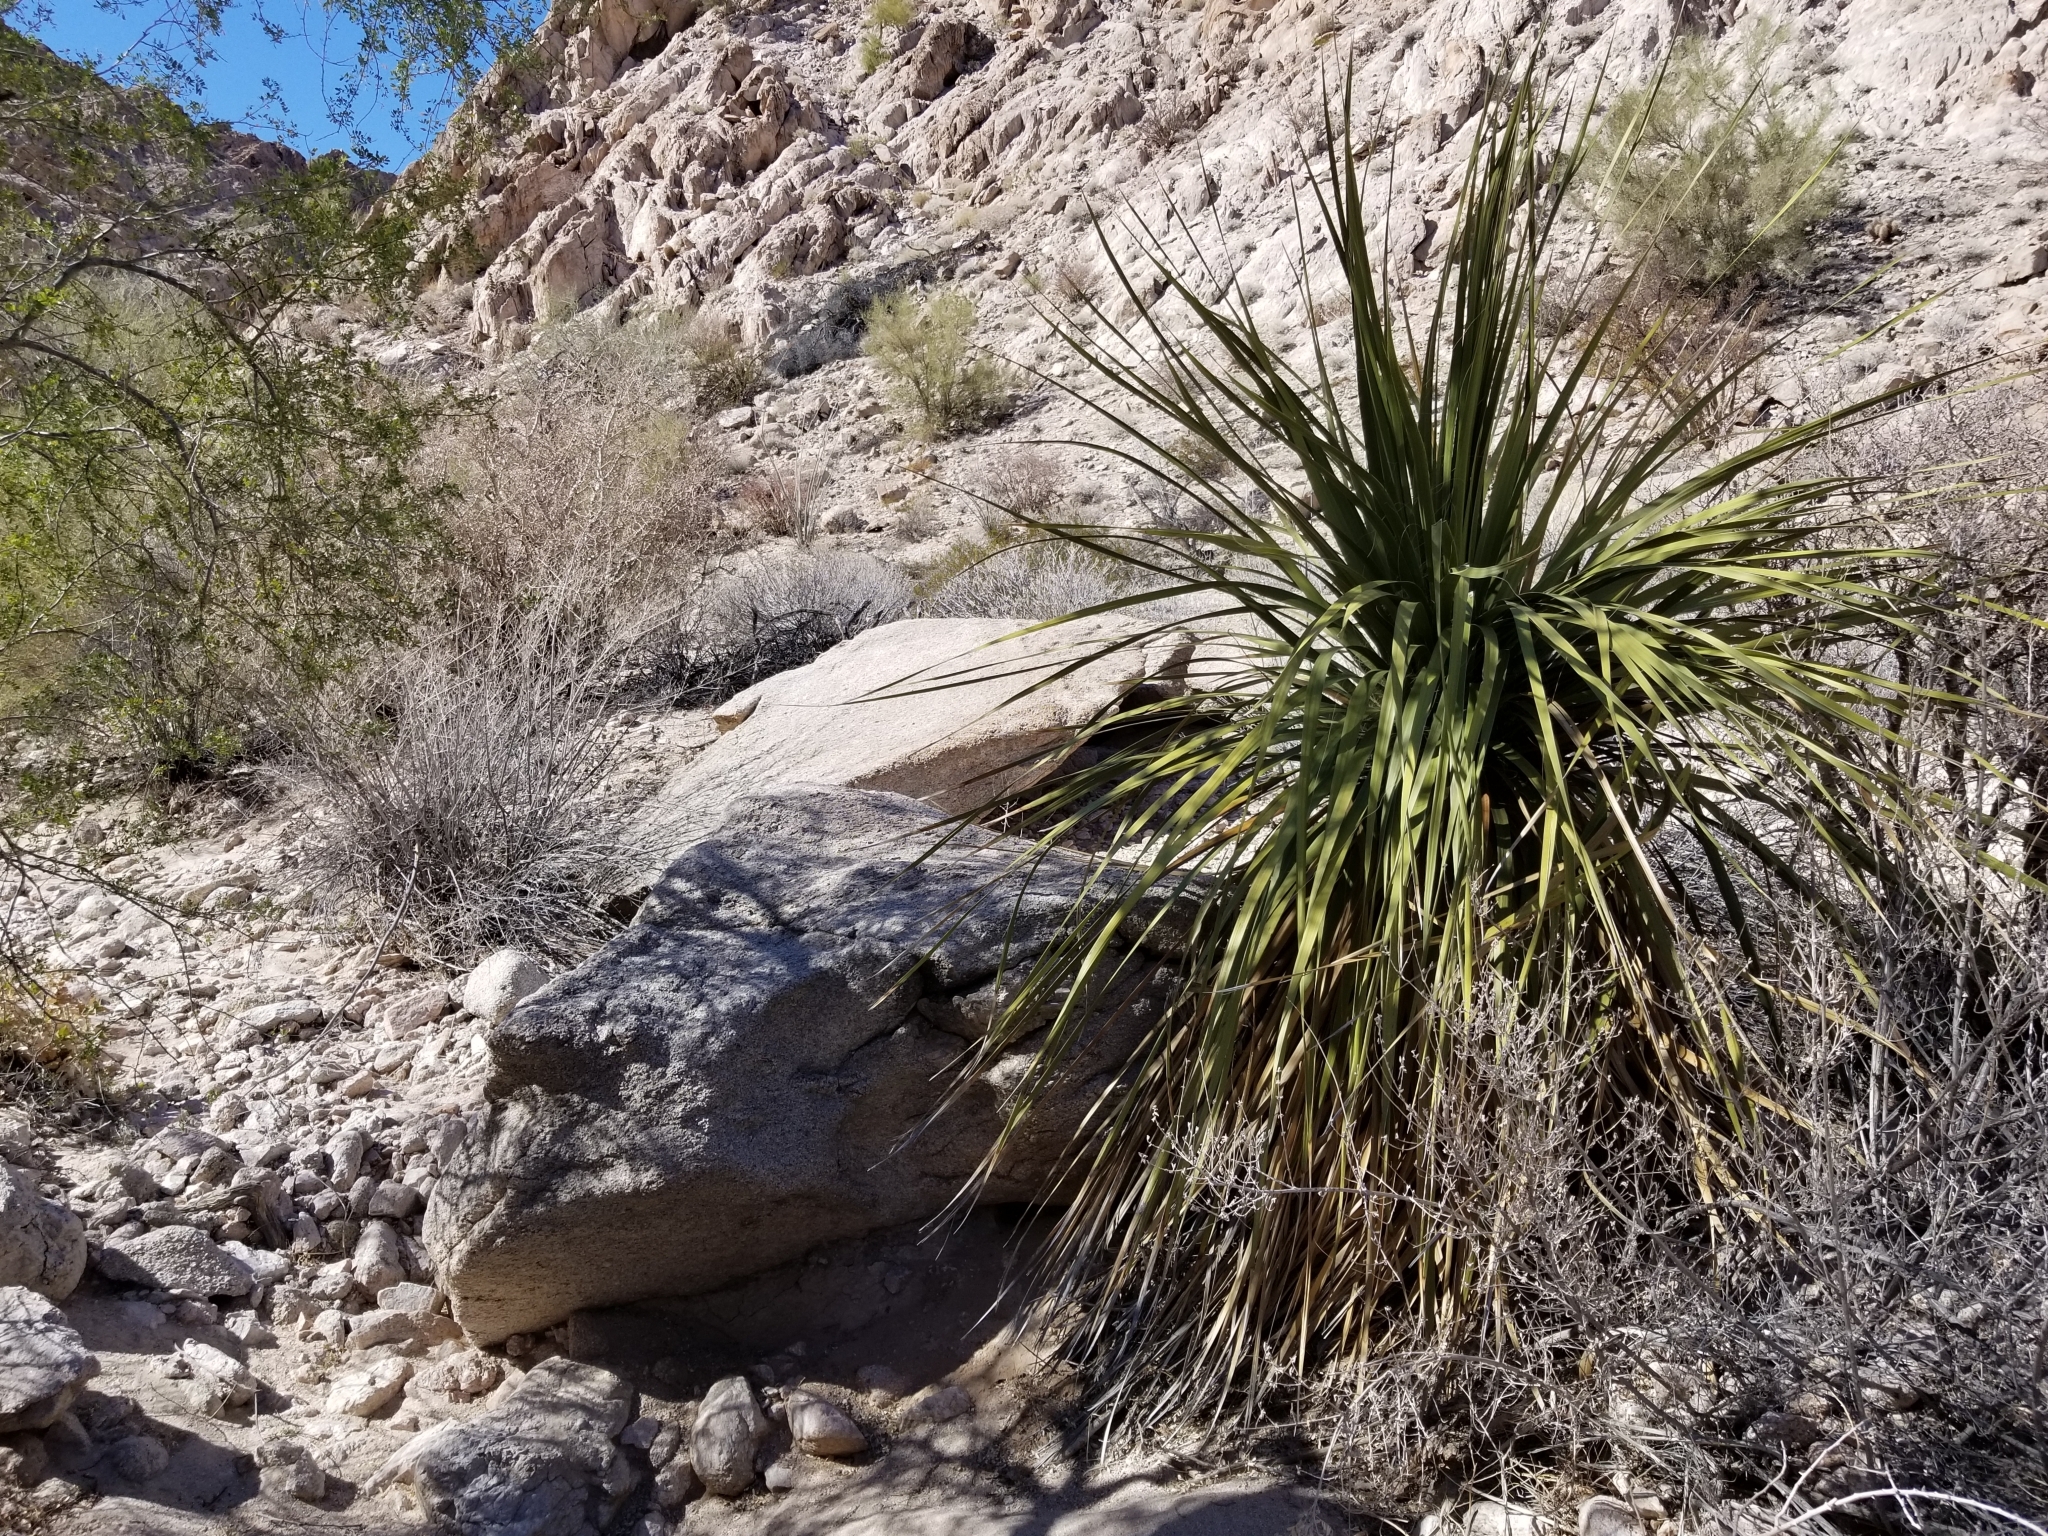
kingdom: Plantae
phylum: Tracheophyta
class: Liliopsida
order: Asparagales
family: Asparagaceae
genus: Nolina
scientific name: Nolina bigelovii
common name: Bigelow bear-grass
